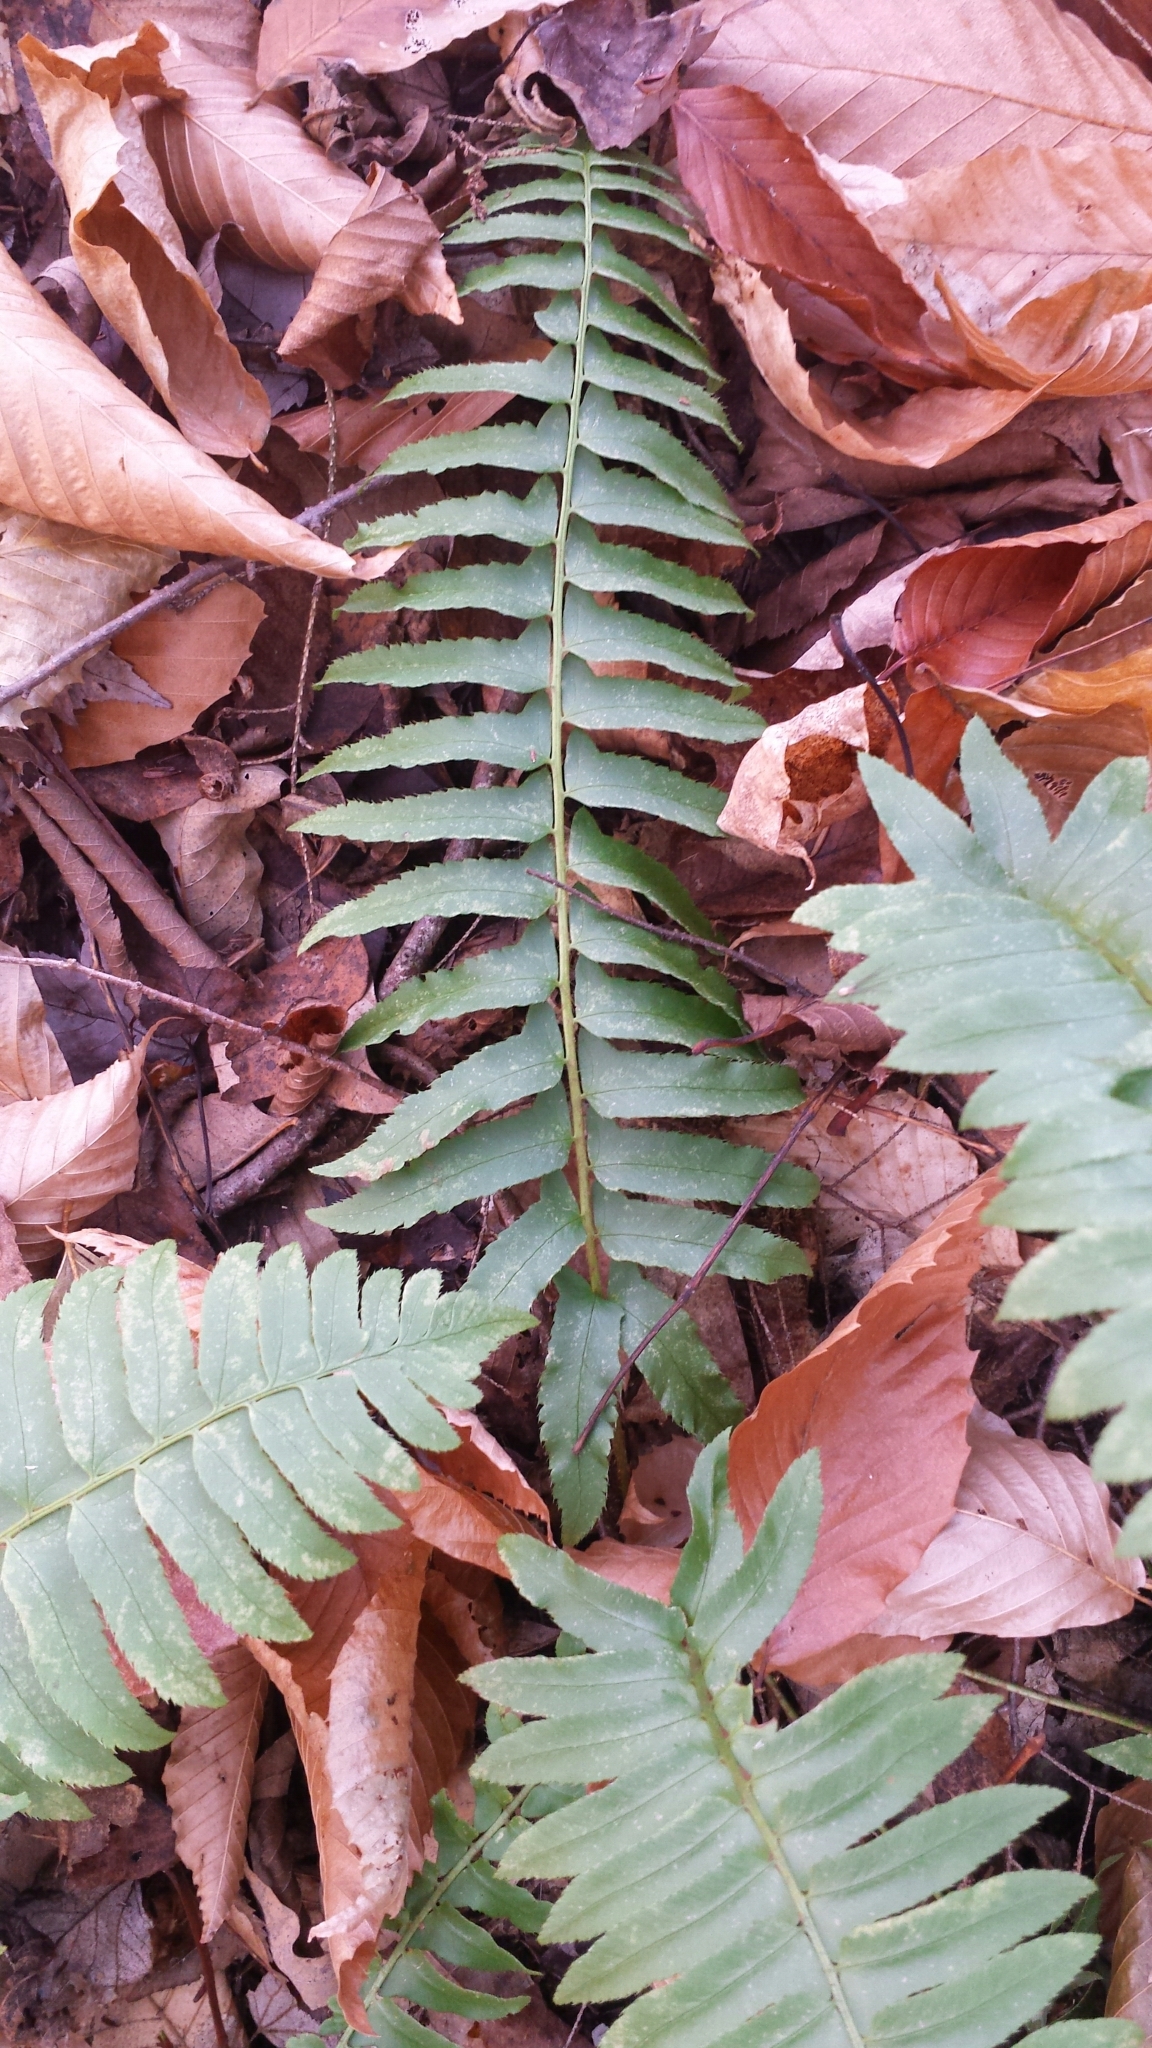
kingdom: Plantae
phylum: Tracheophyta
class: Polypodiopsida
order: Polypodiales
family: Dryopteridaceae
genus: Polystichum
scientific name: Polystichum acrostichoides
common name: Christmas fern
